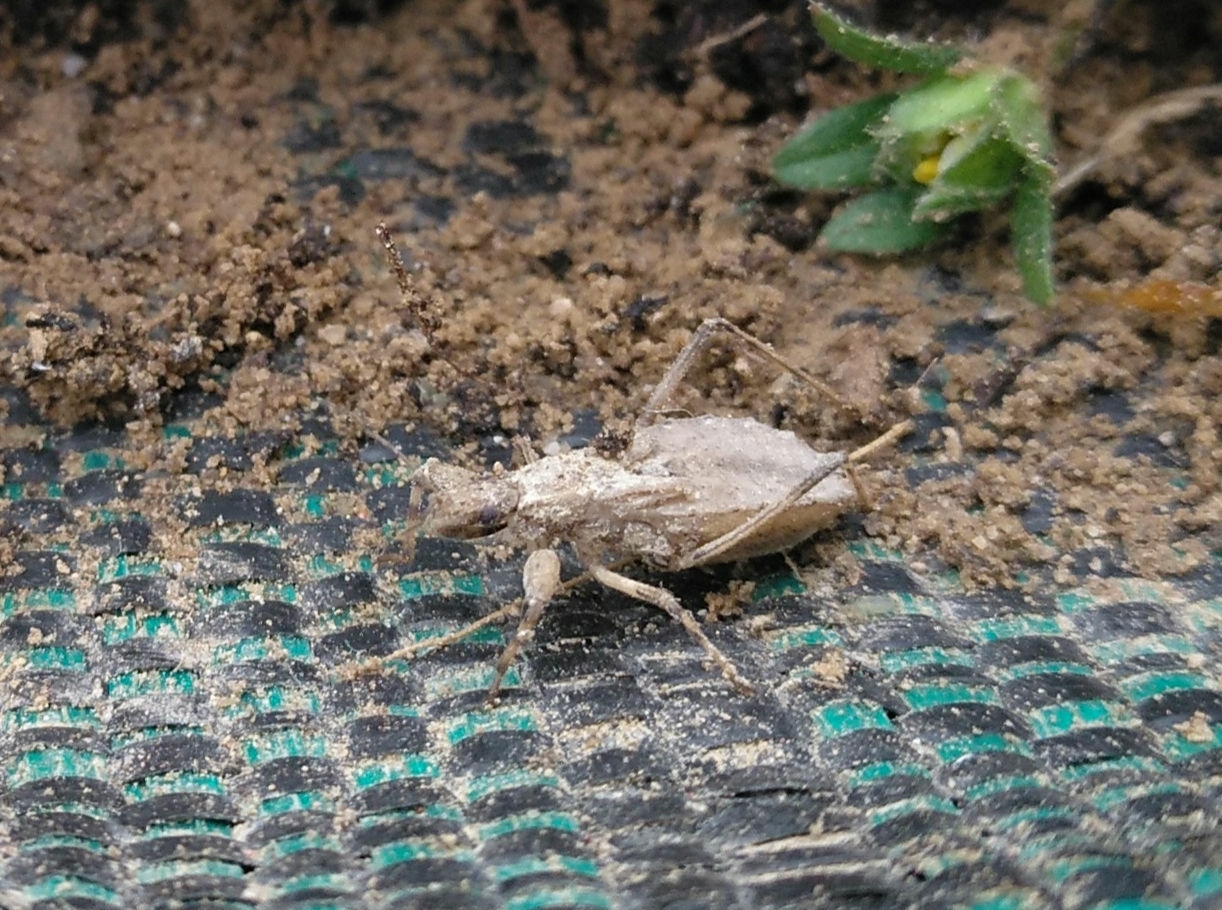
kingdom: Animalia
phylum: Arthropoda
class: Insecta
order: Hemiptera
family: Reduviidae
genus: Oncocephalus
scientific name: Oncocephalus pilicornis
